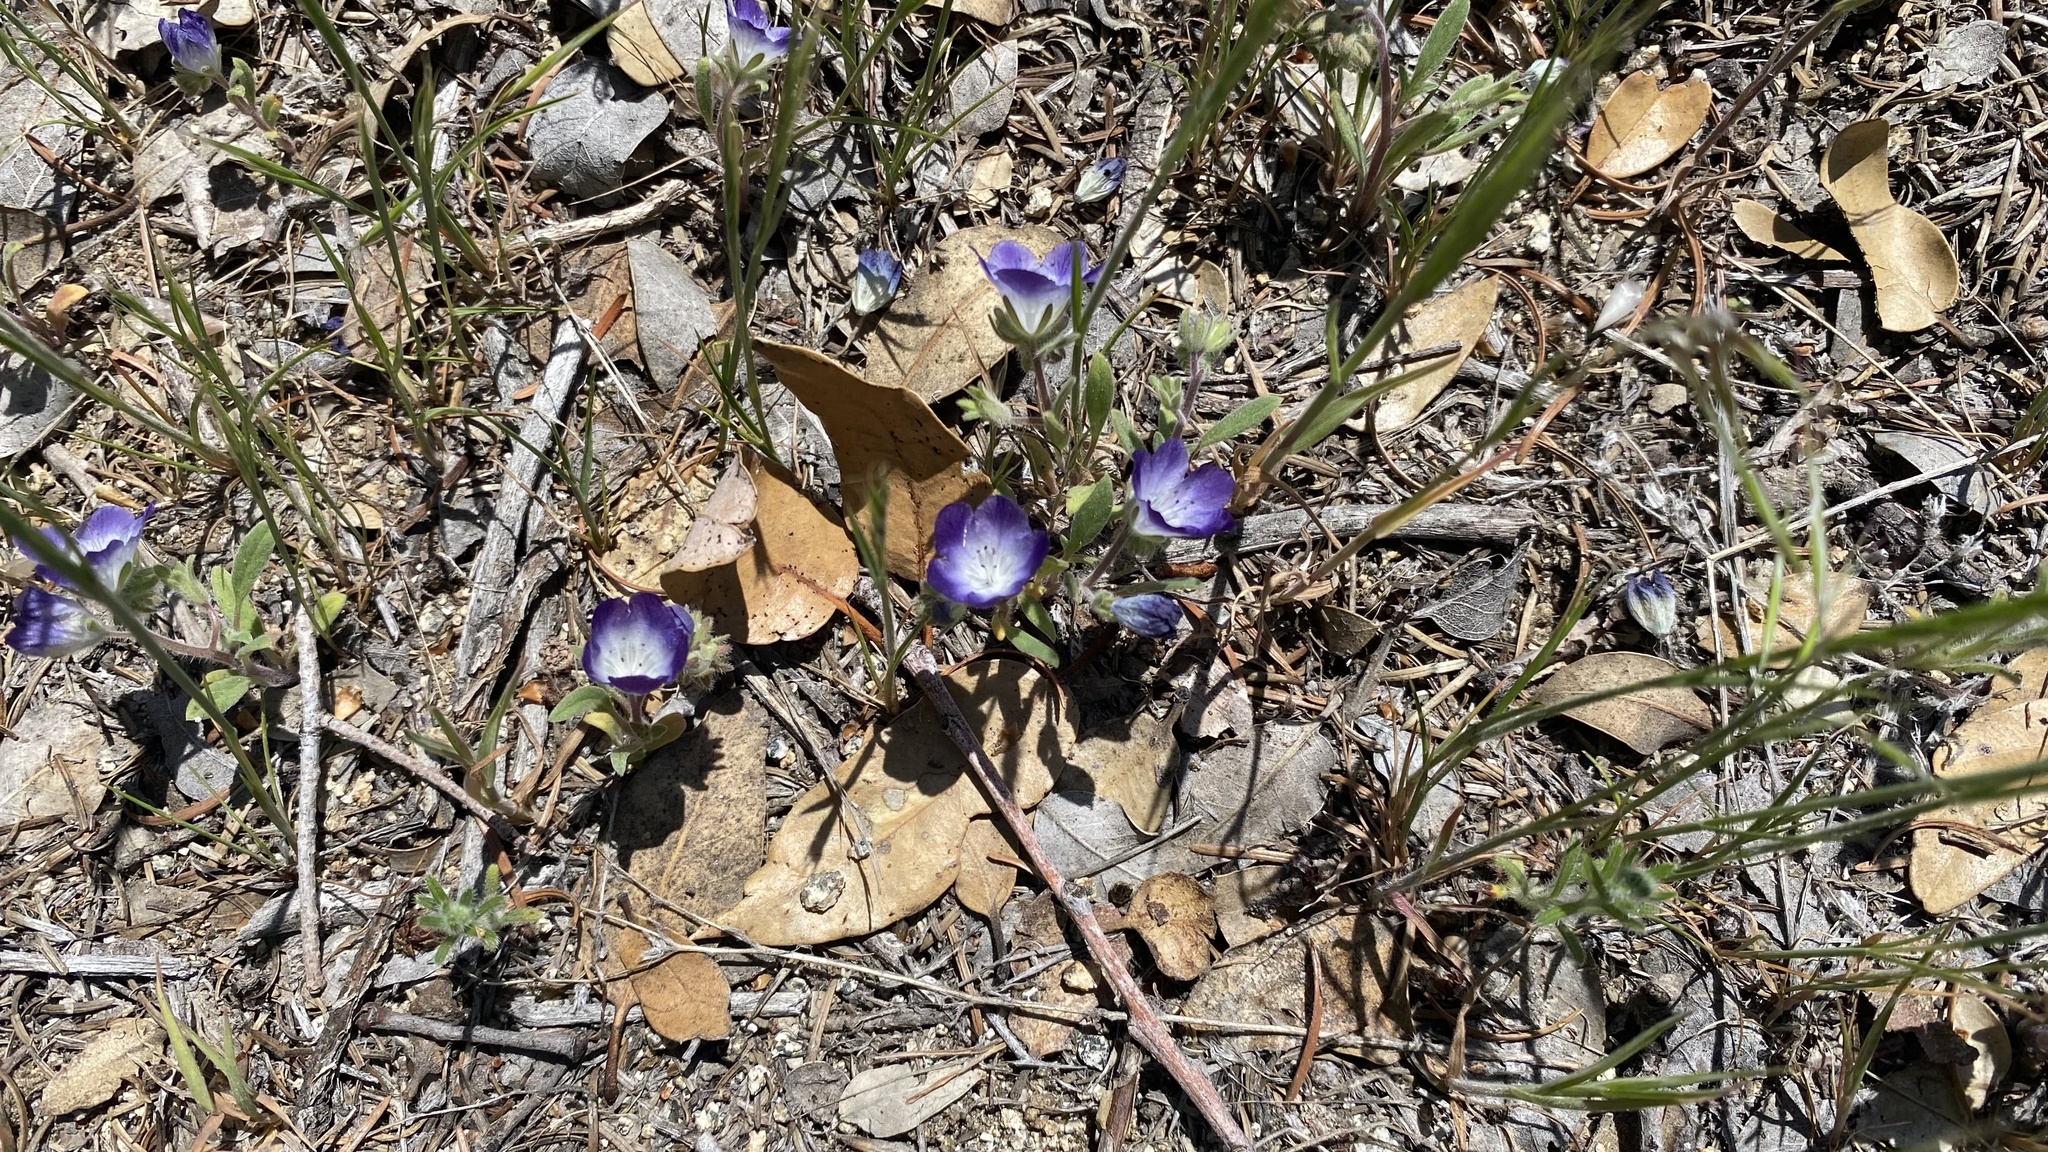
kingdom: Plantae
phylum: Tracheophyta
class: Magnoliopsida
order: Boraginales
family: Hydrophyllaceae
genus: Phacelia
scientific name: Phacelia davidsonii
